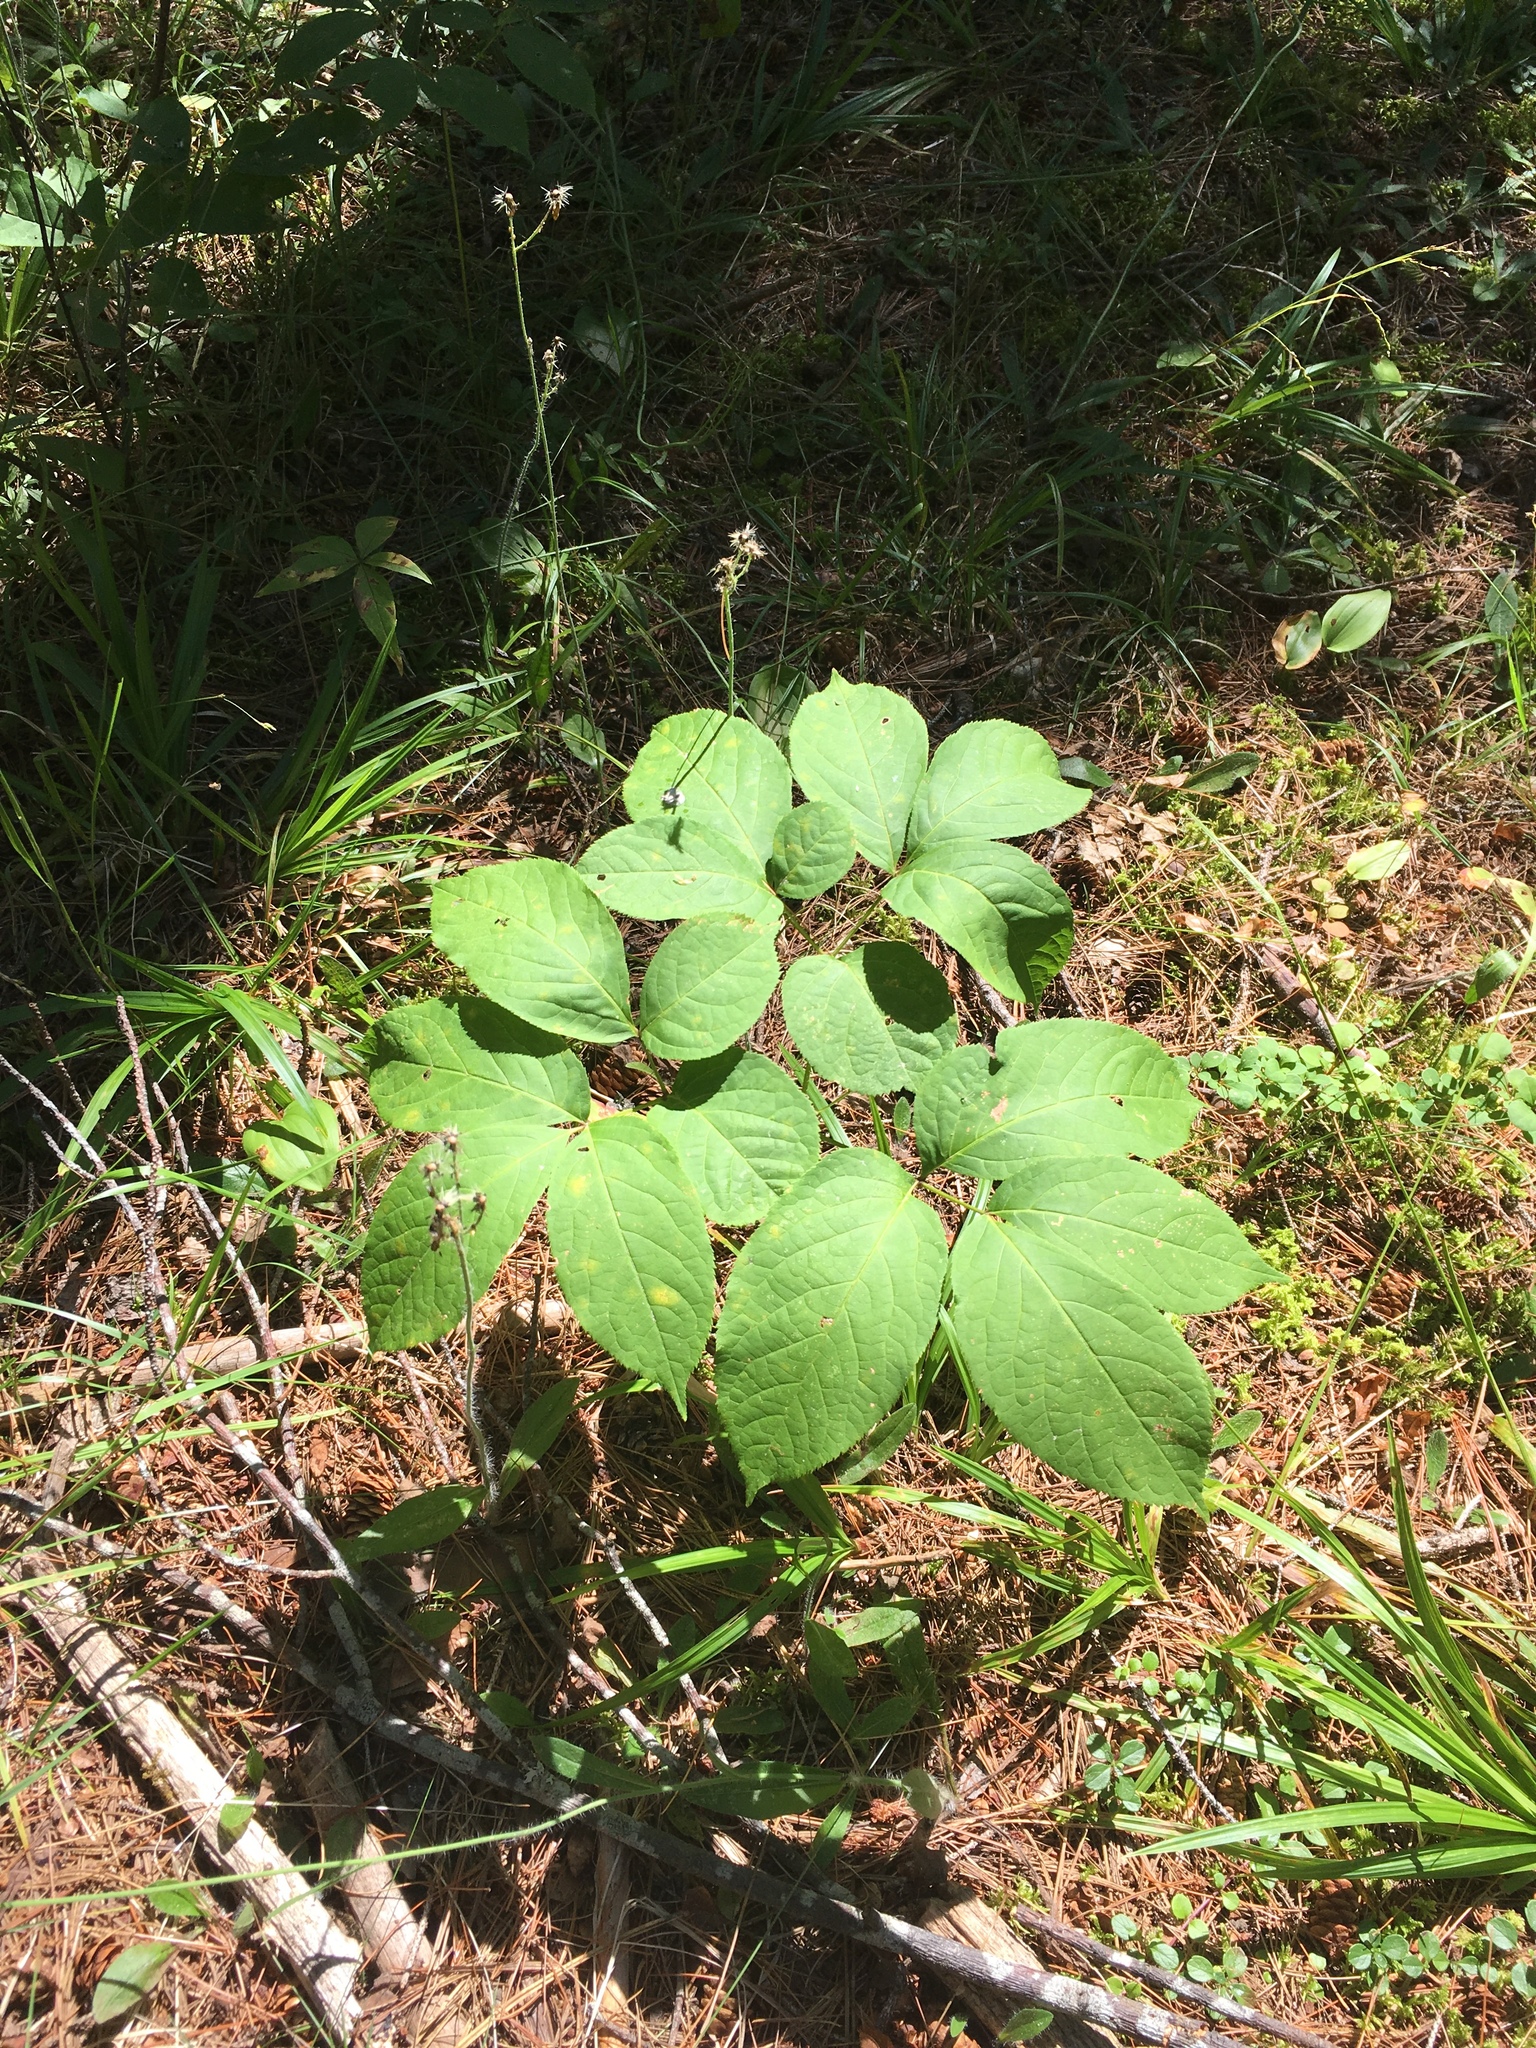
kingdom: Plantae
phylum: Tracheophyta
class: Magnoliopsida
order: Apiales
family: Araliaceae
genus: Aralia
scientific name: Aralia nudicaulis
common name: Wild sarsaparilla
